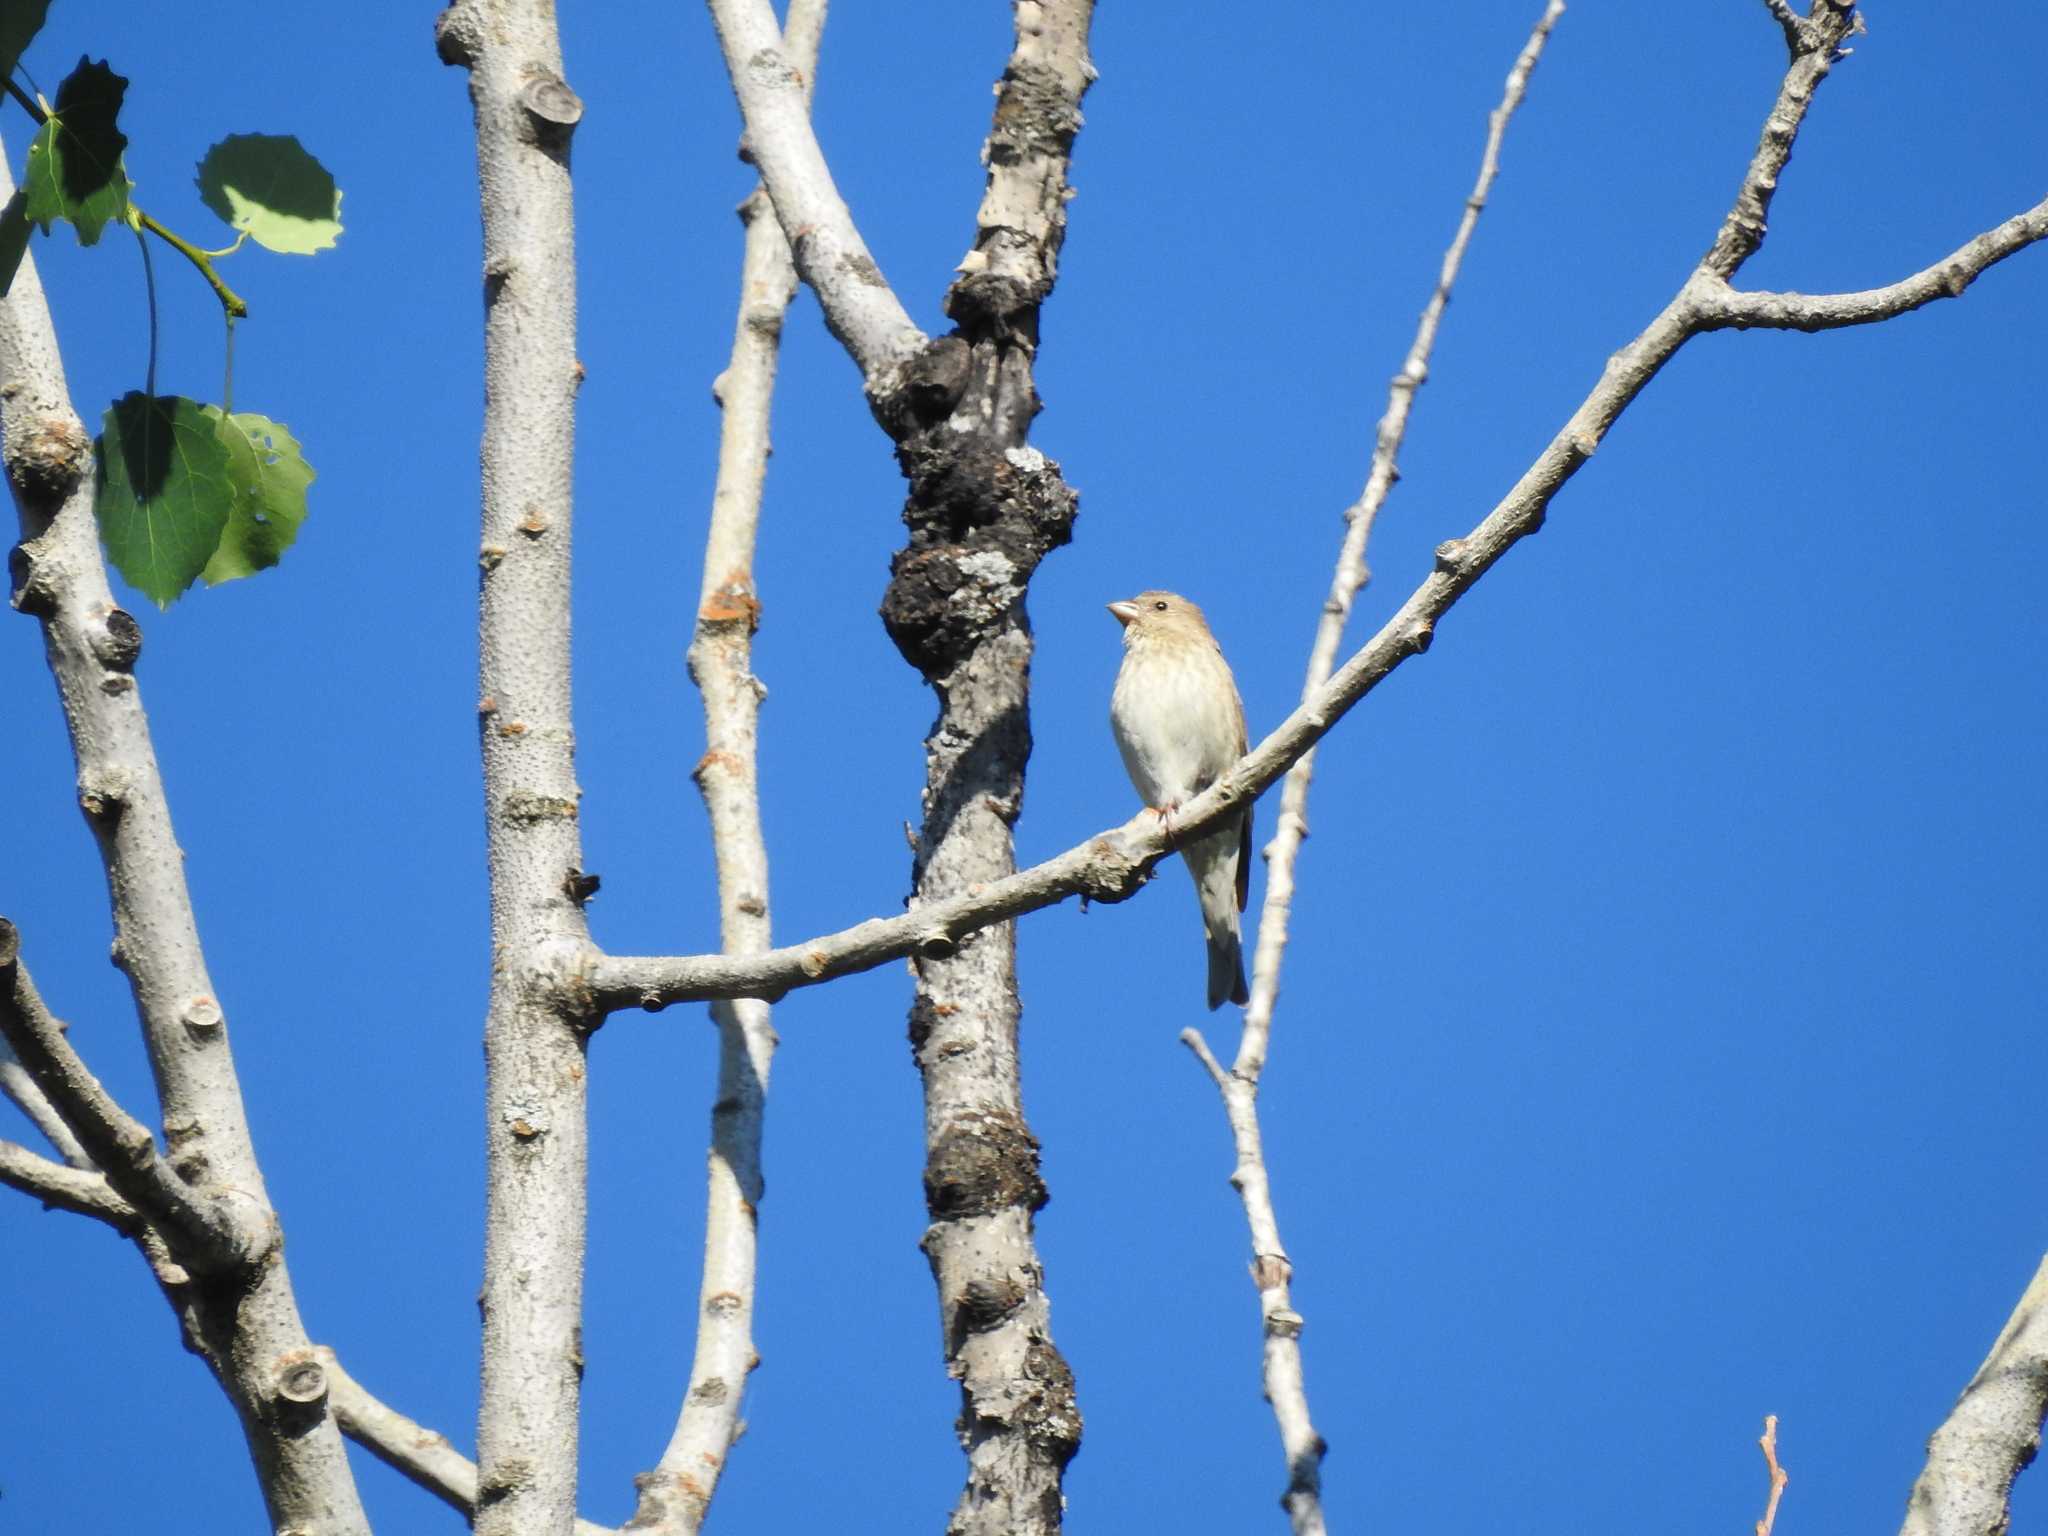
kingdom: Animalia
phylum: Chordata
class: Aves
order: Passeriformes
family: Fringillidae
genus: Carpodacus
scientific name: Carpodacus erythrinus
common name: Common rosefinch
